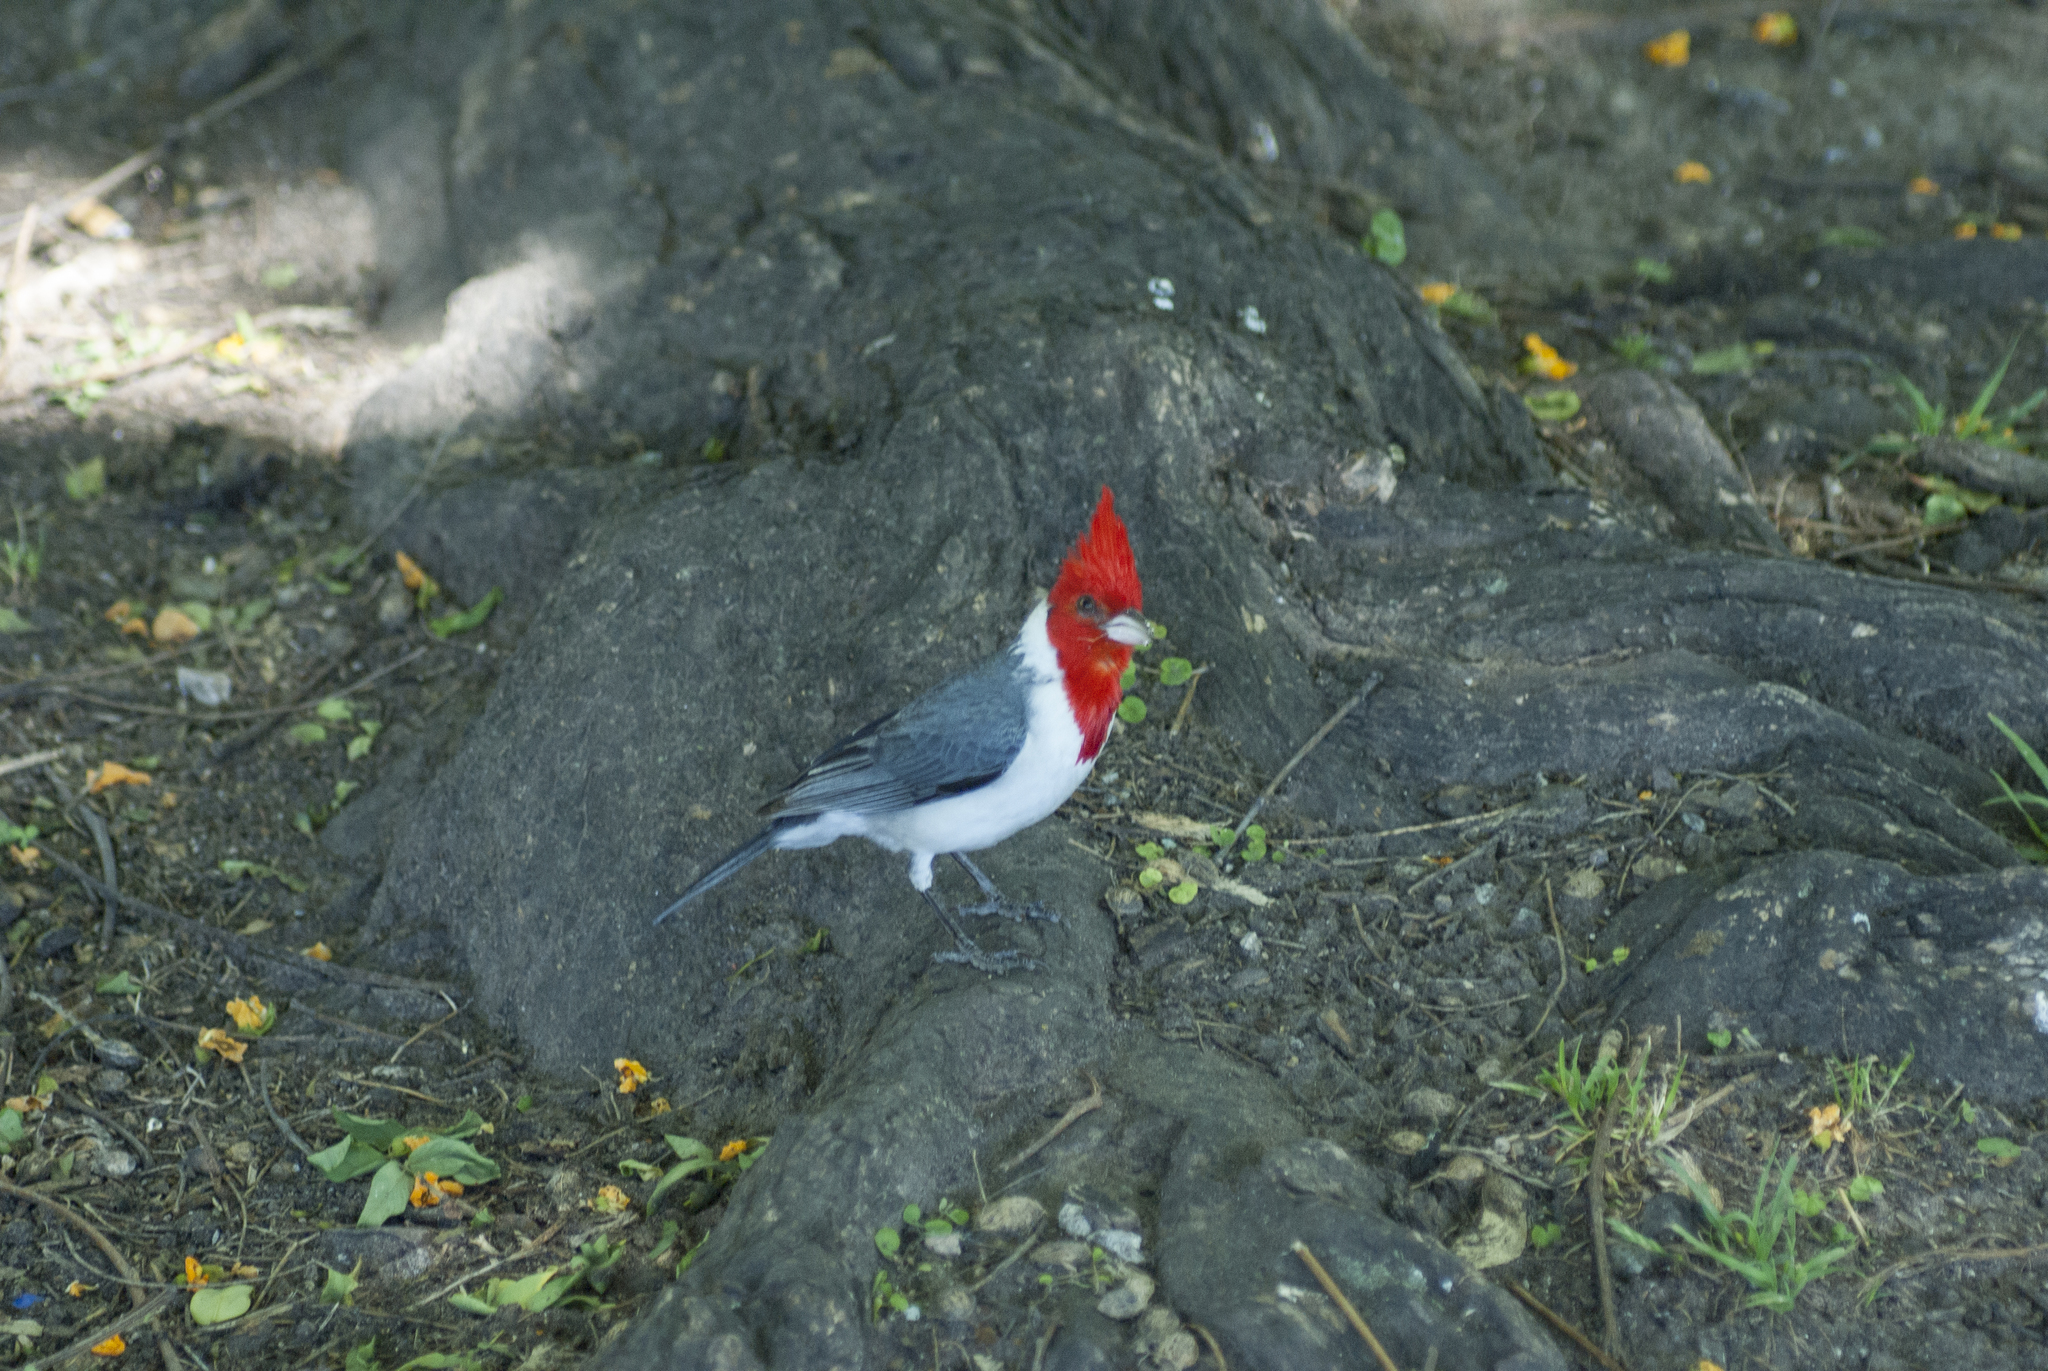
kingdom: Animalia
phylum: Chordata
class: Aves
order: Passeriformes
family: Thraupidae
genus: Paroaria
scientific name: Paroaria coronata
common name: Red-crested cardinal
